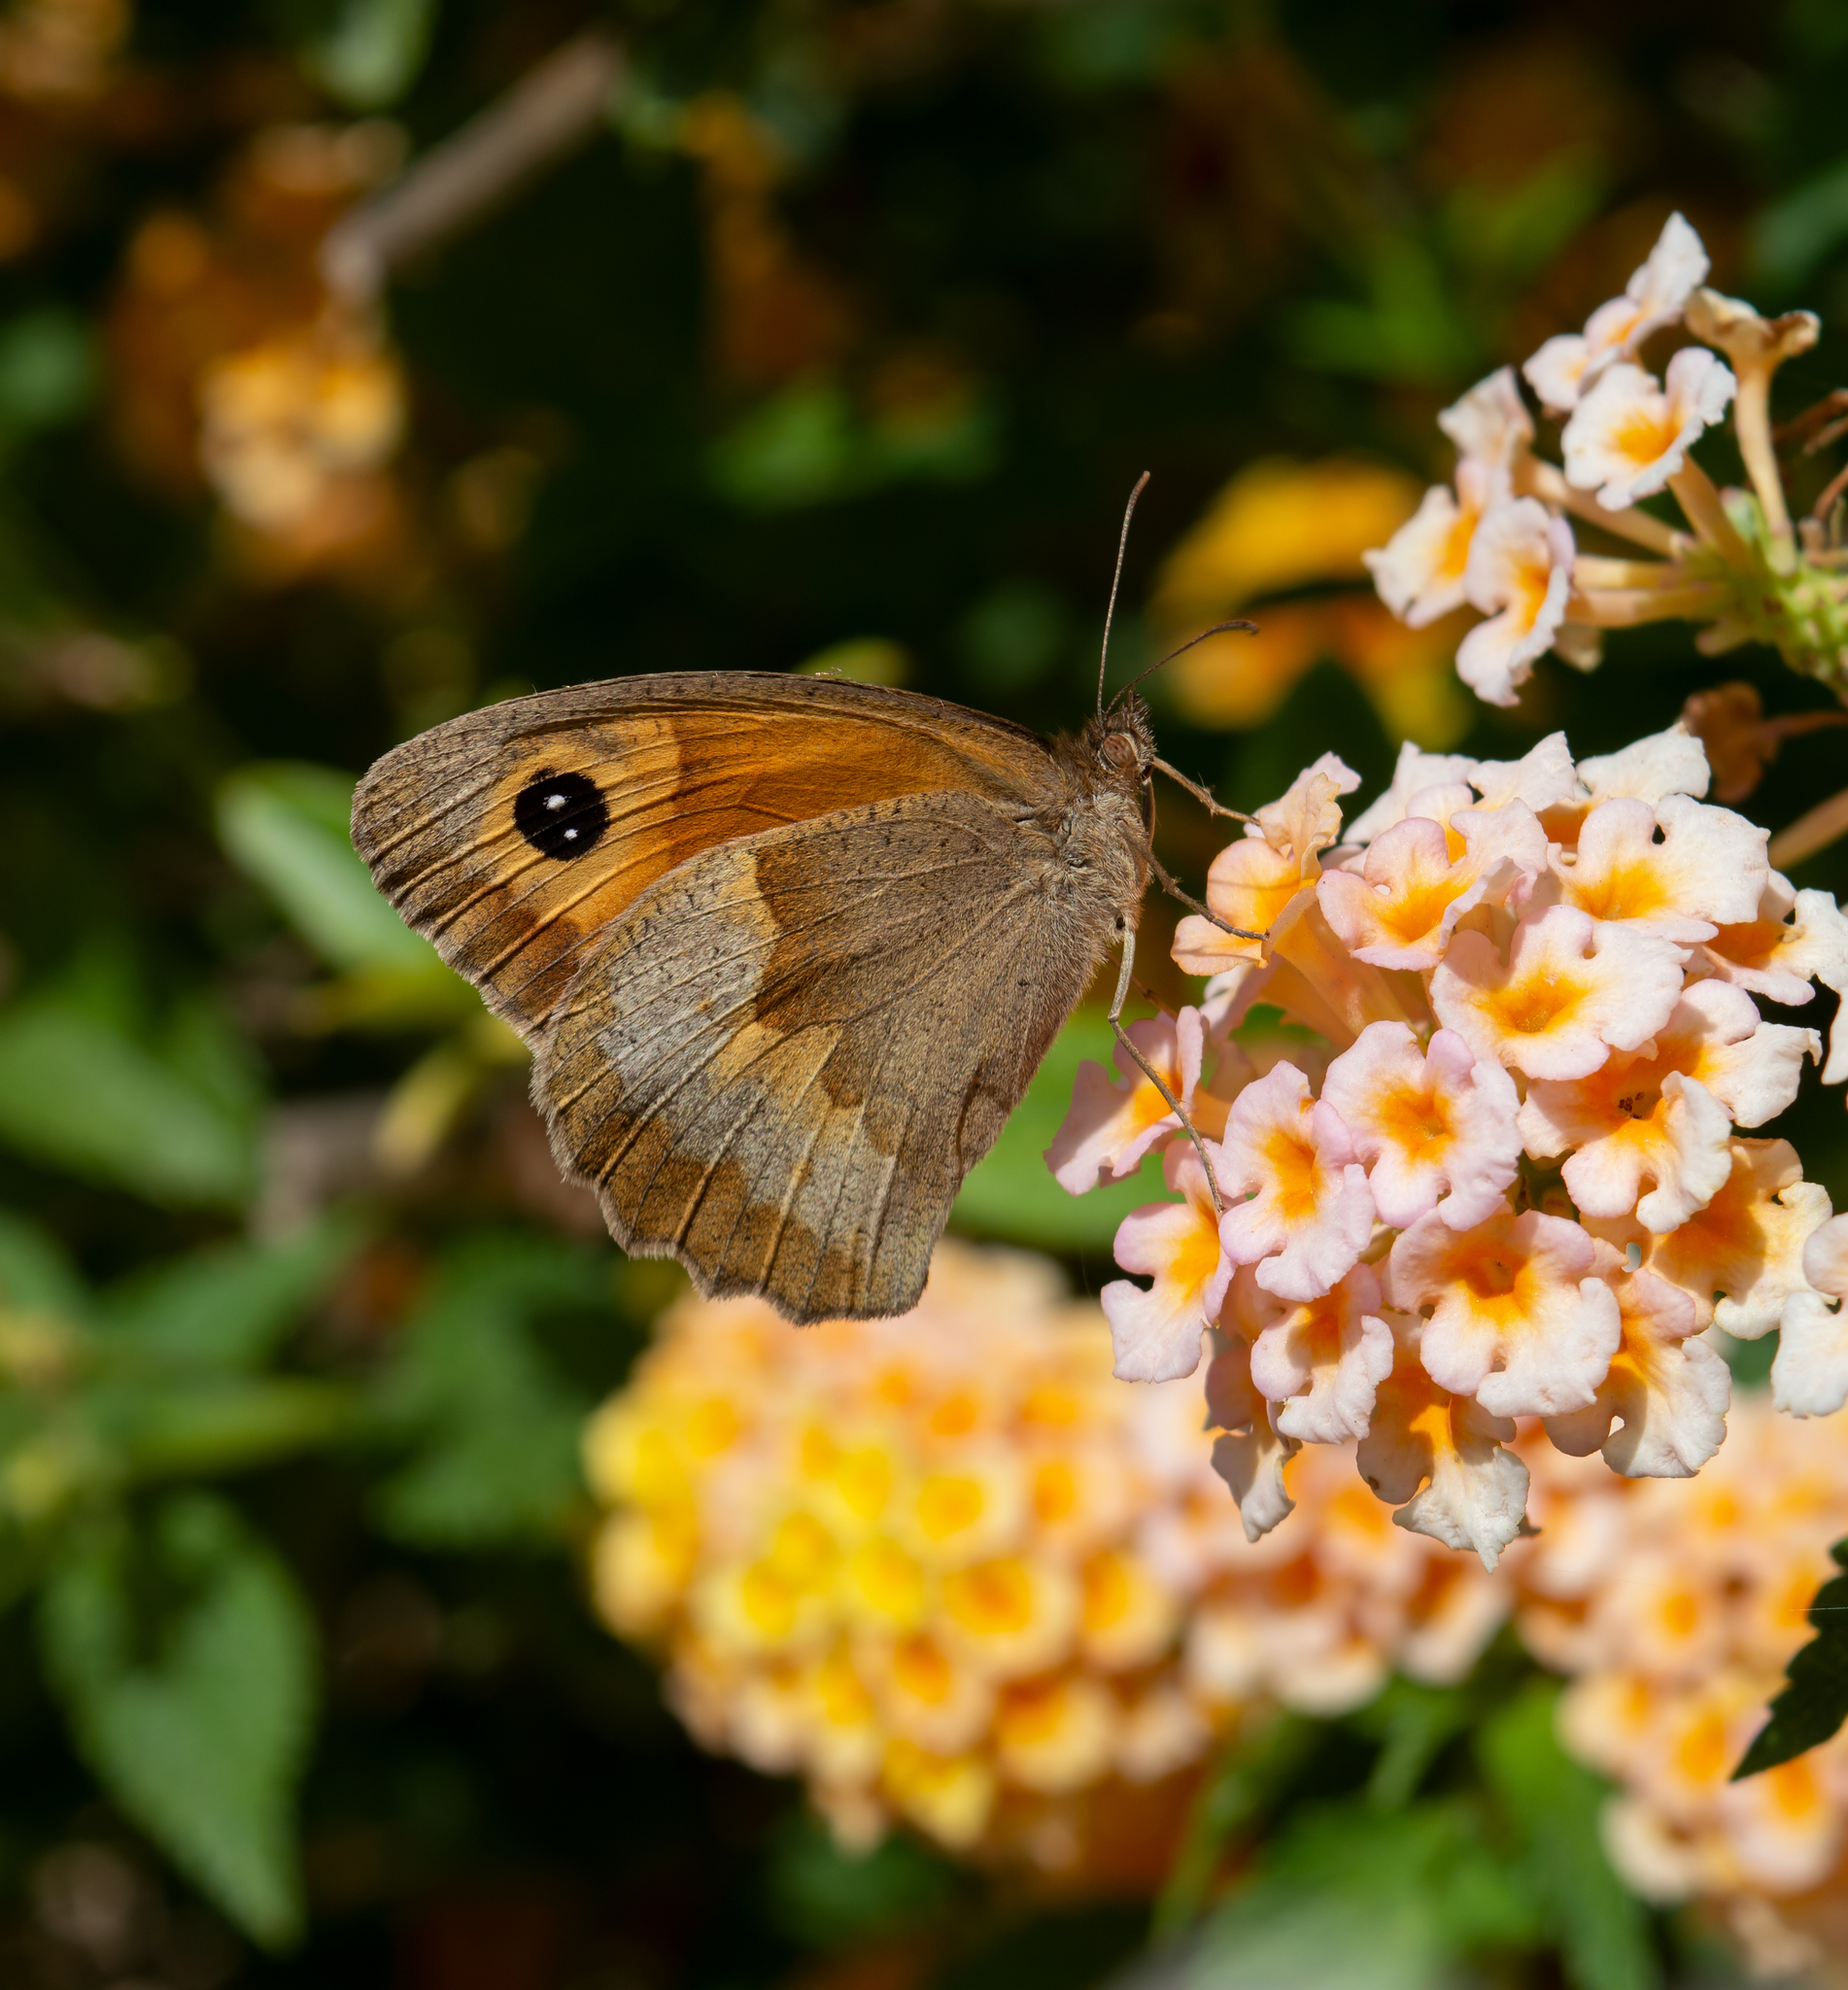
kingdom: Animalia
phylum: Arthropoda
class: Insecta
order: Lepidoptera
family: Nymphalidae
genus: Maniola
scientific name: Maniola jurtina
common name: Meadow brown
